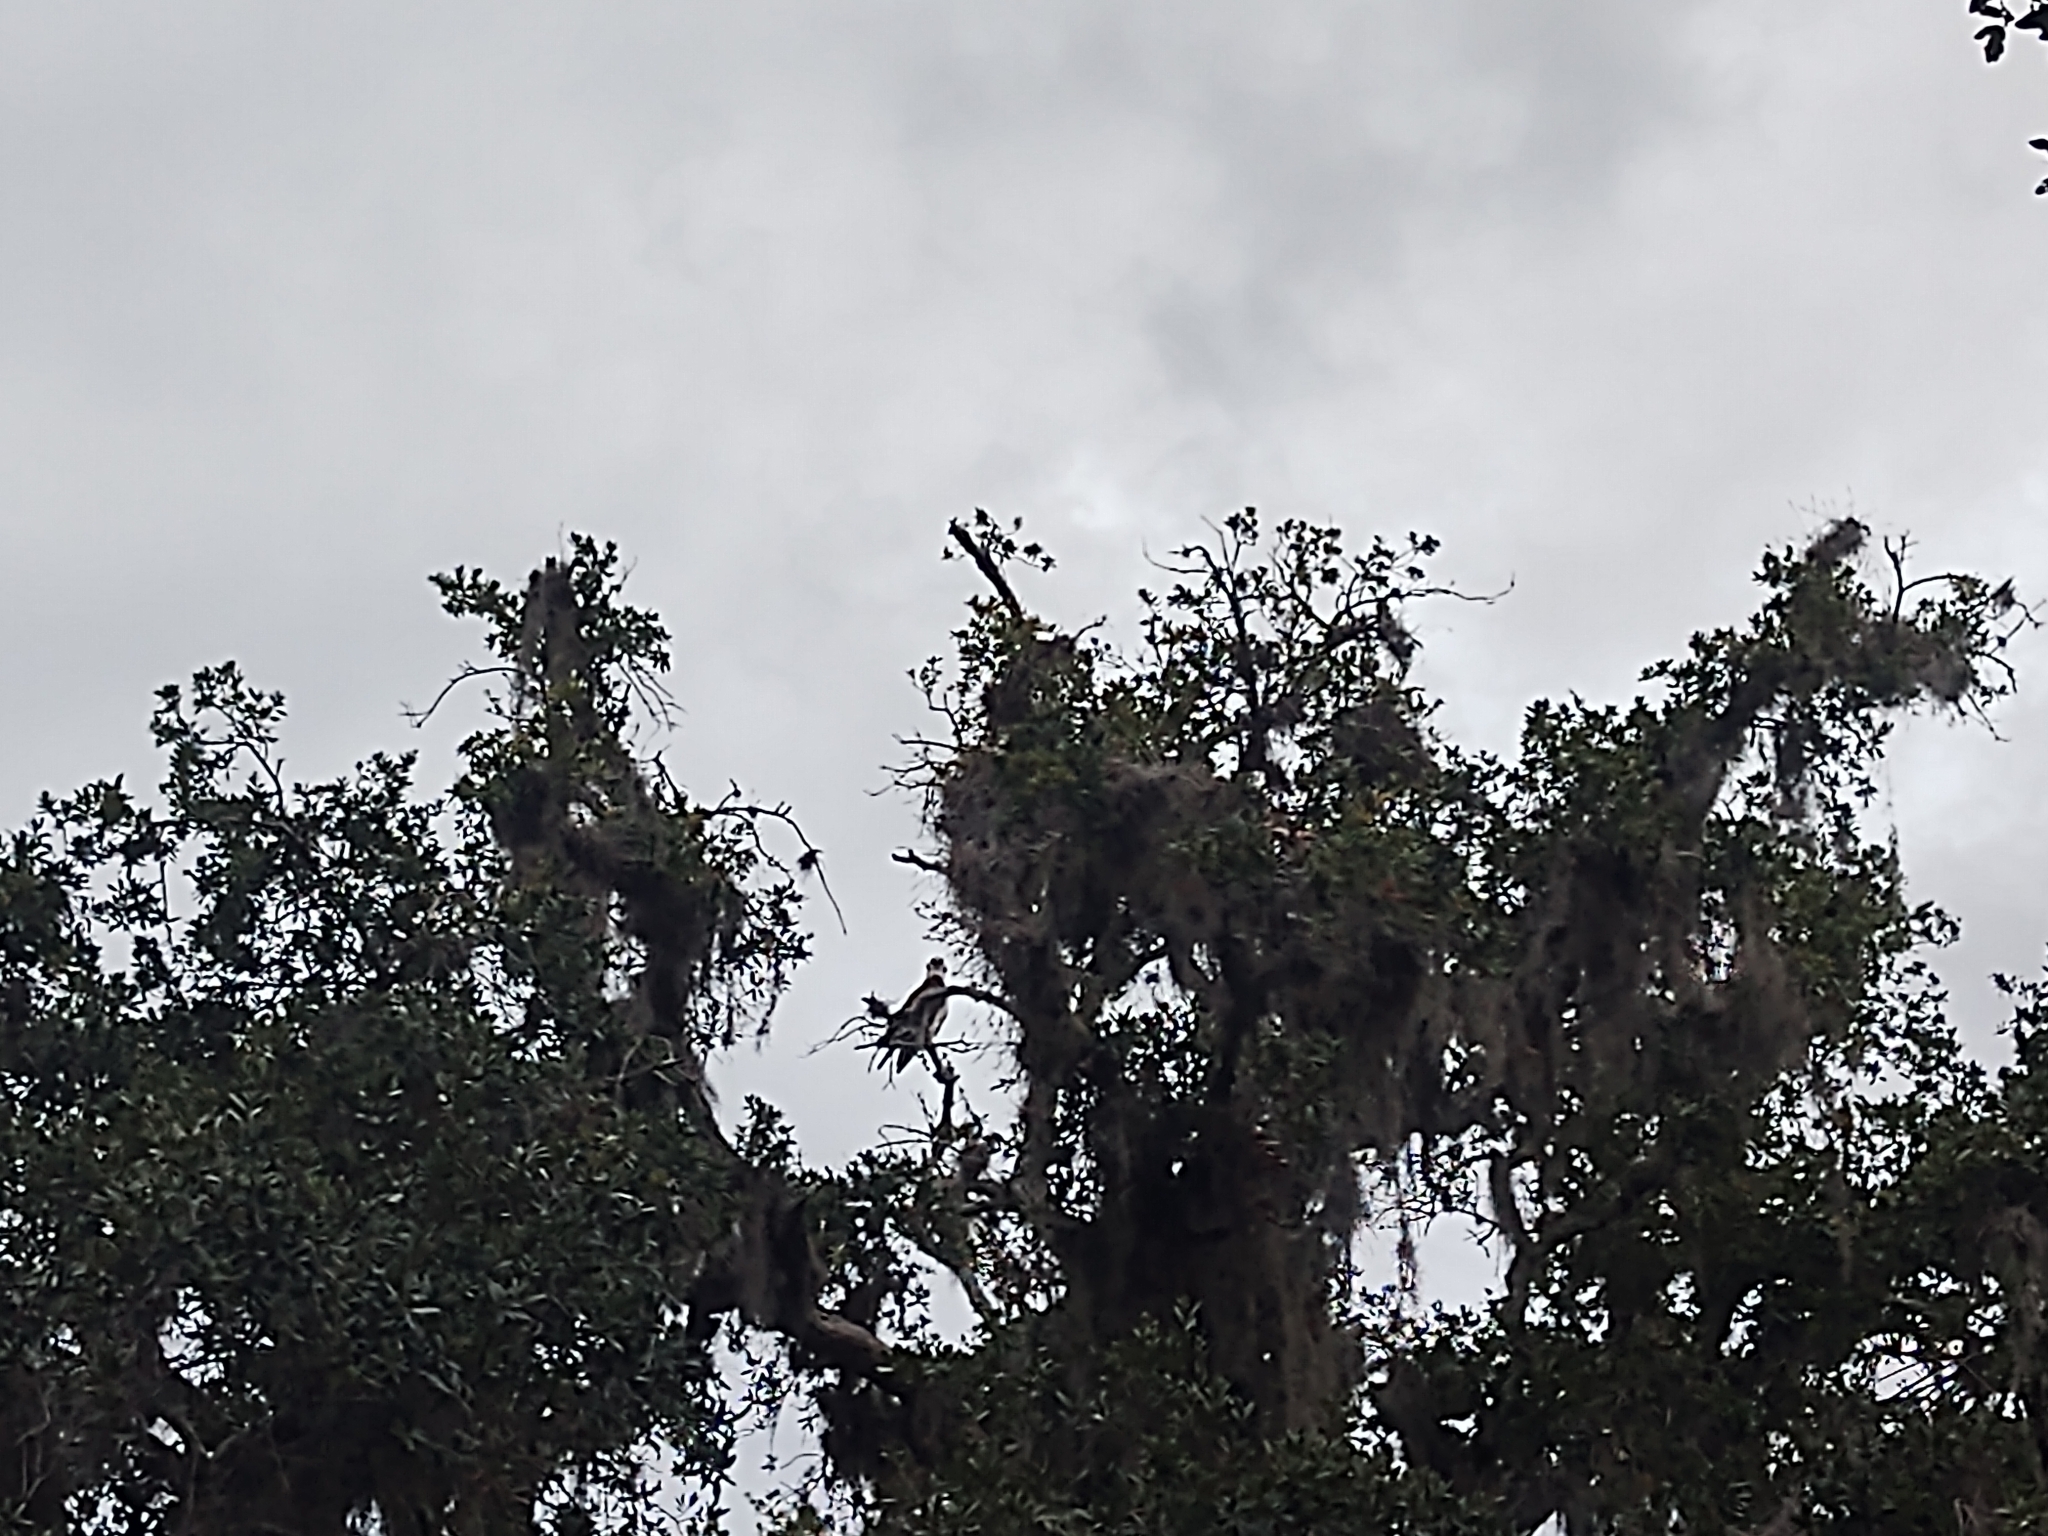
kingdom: Animalia
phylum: Chordata
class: Aves
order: Accipitriformes
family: Pandionidae
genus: Pandion
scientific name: Pandion haliaetus
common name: Osprey
